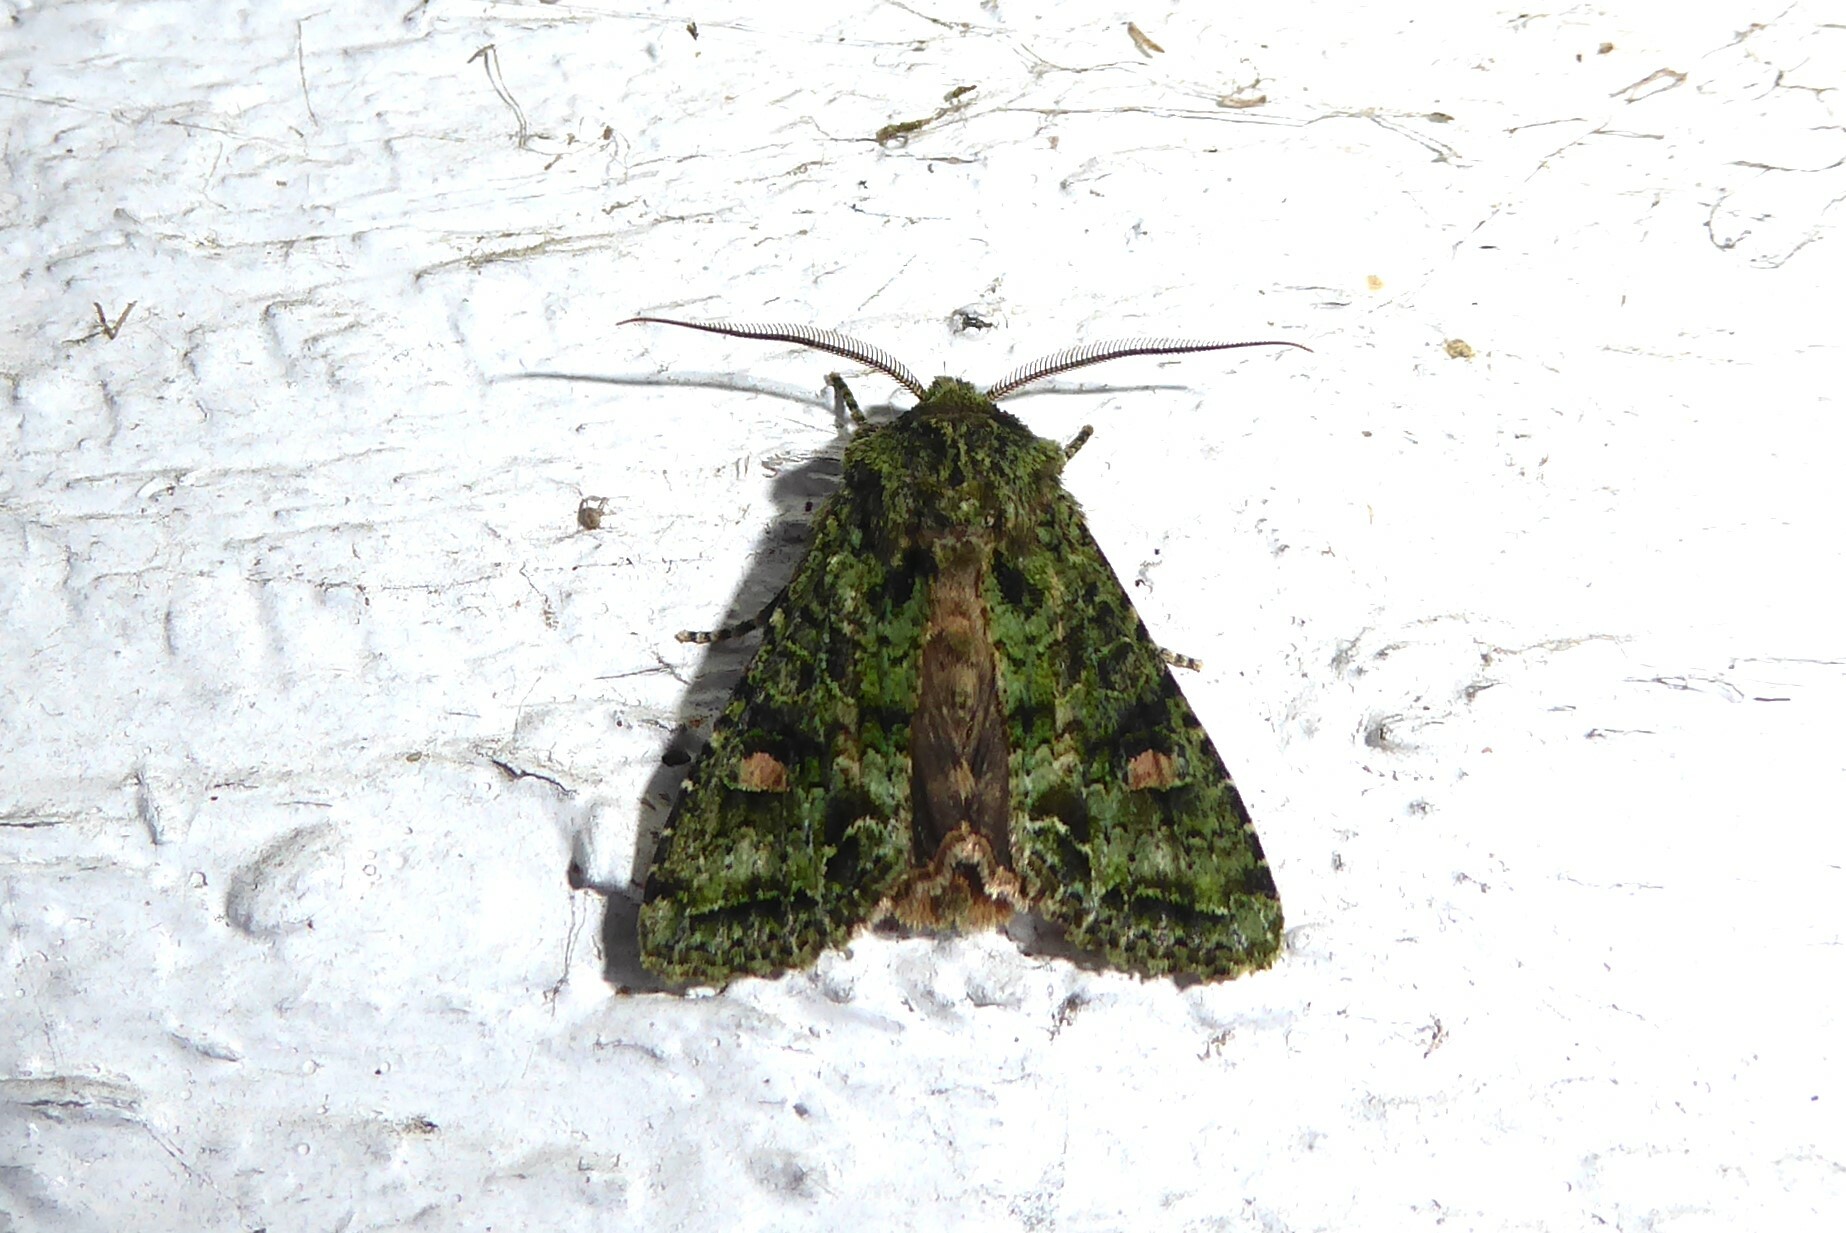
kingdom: Animalia
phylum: Arthropoda
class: Insecta
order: Lepidoptera
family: Noctuidae
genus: Ichneutica
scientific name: Ichneutica
